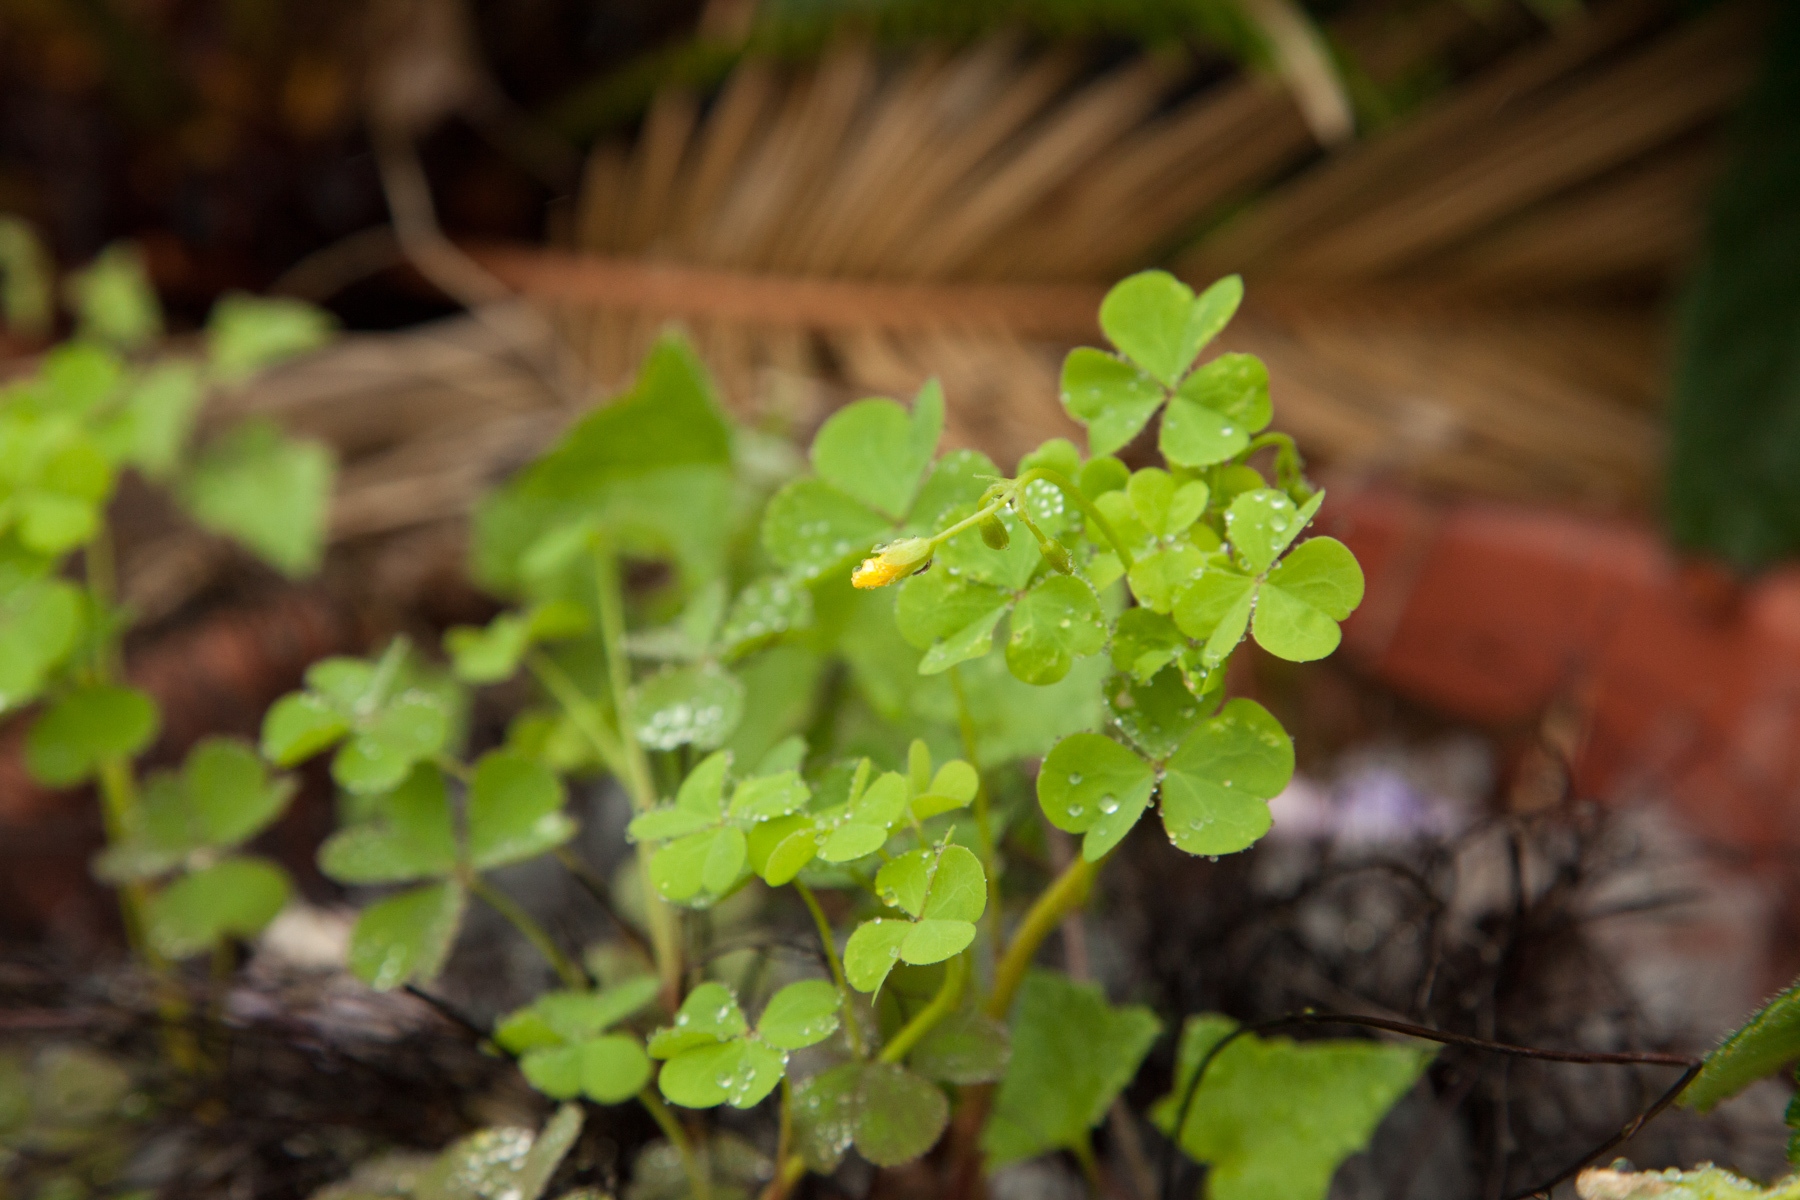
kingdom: Plantae
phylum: Tracheophyta
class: Magnoliopsida
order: Oxalidales
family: Oxalidaceae
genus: Oxalis
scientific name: Oxalis
